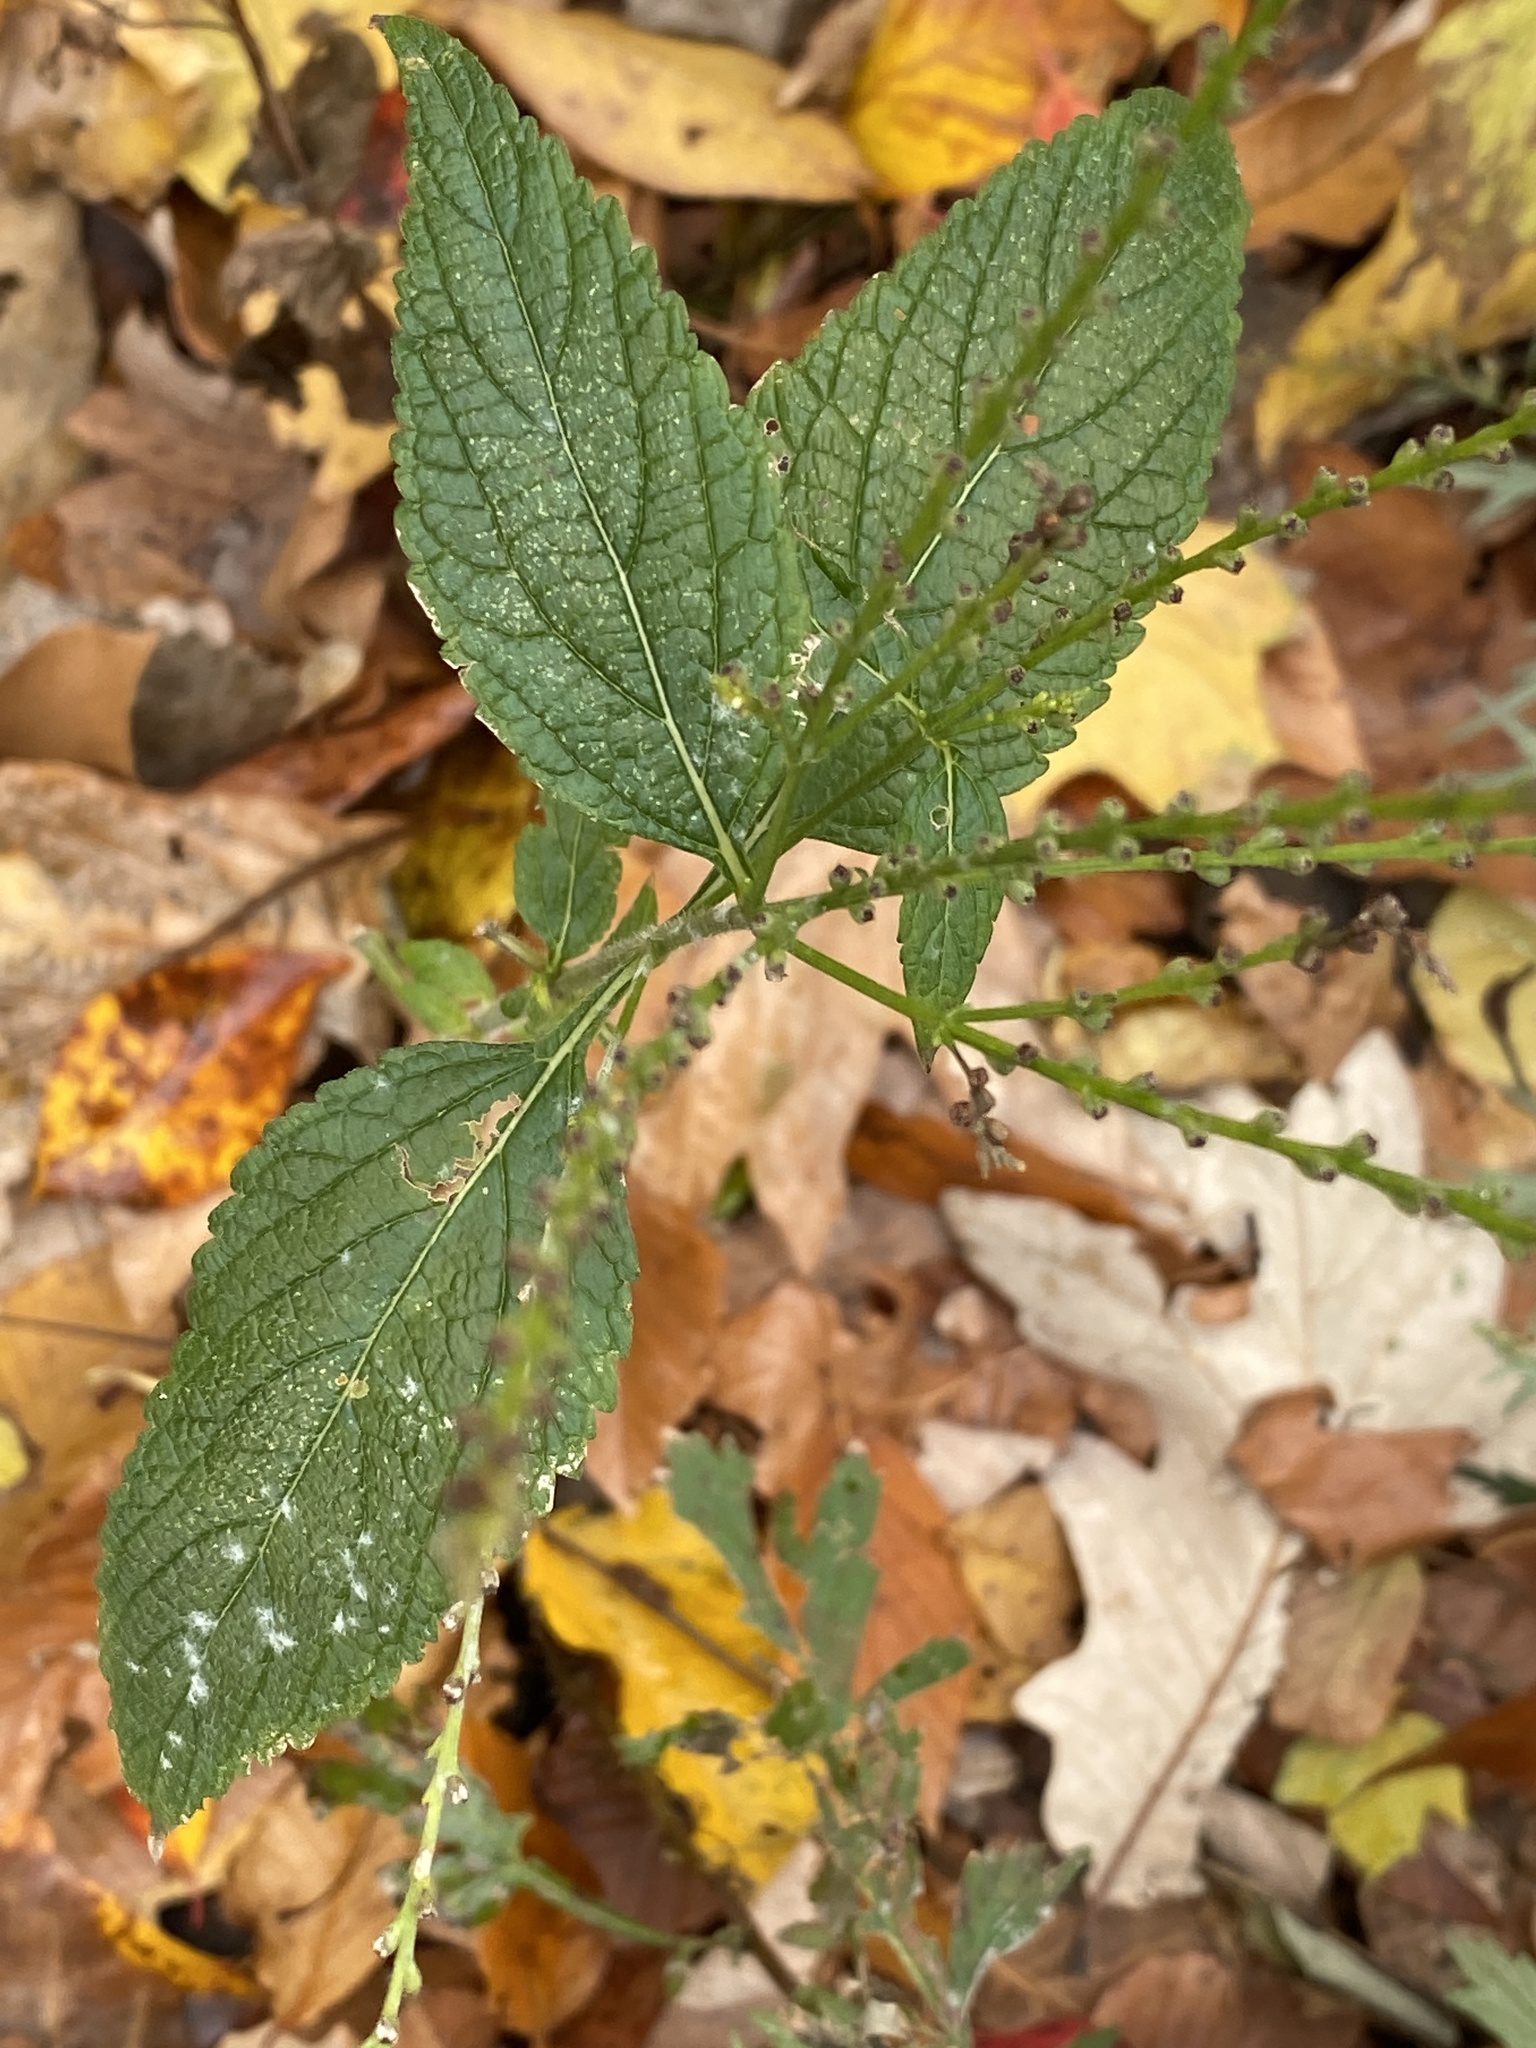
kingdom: Plantae
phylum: Tracheophyta
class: Magnoliopsida
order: Lamiales
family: Verbenaceae
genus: Verbena
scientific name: Verbena urticifolia
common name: Nettle-leaved vervain
